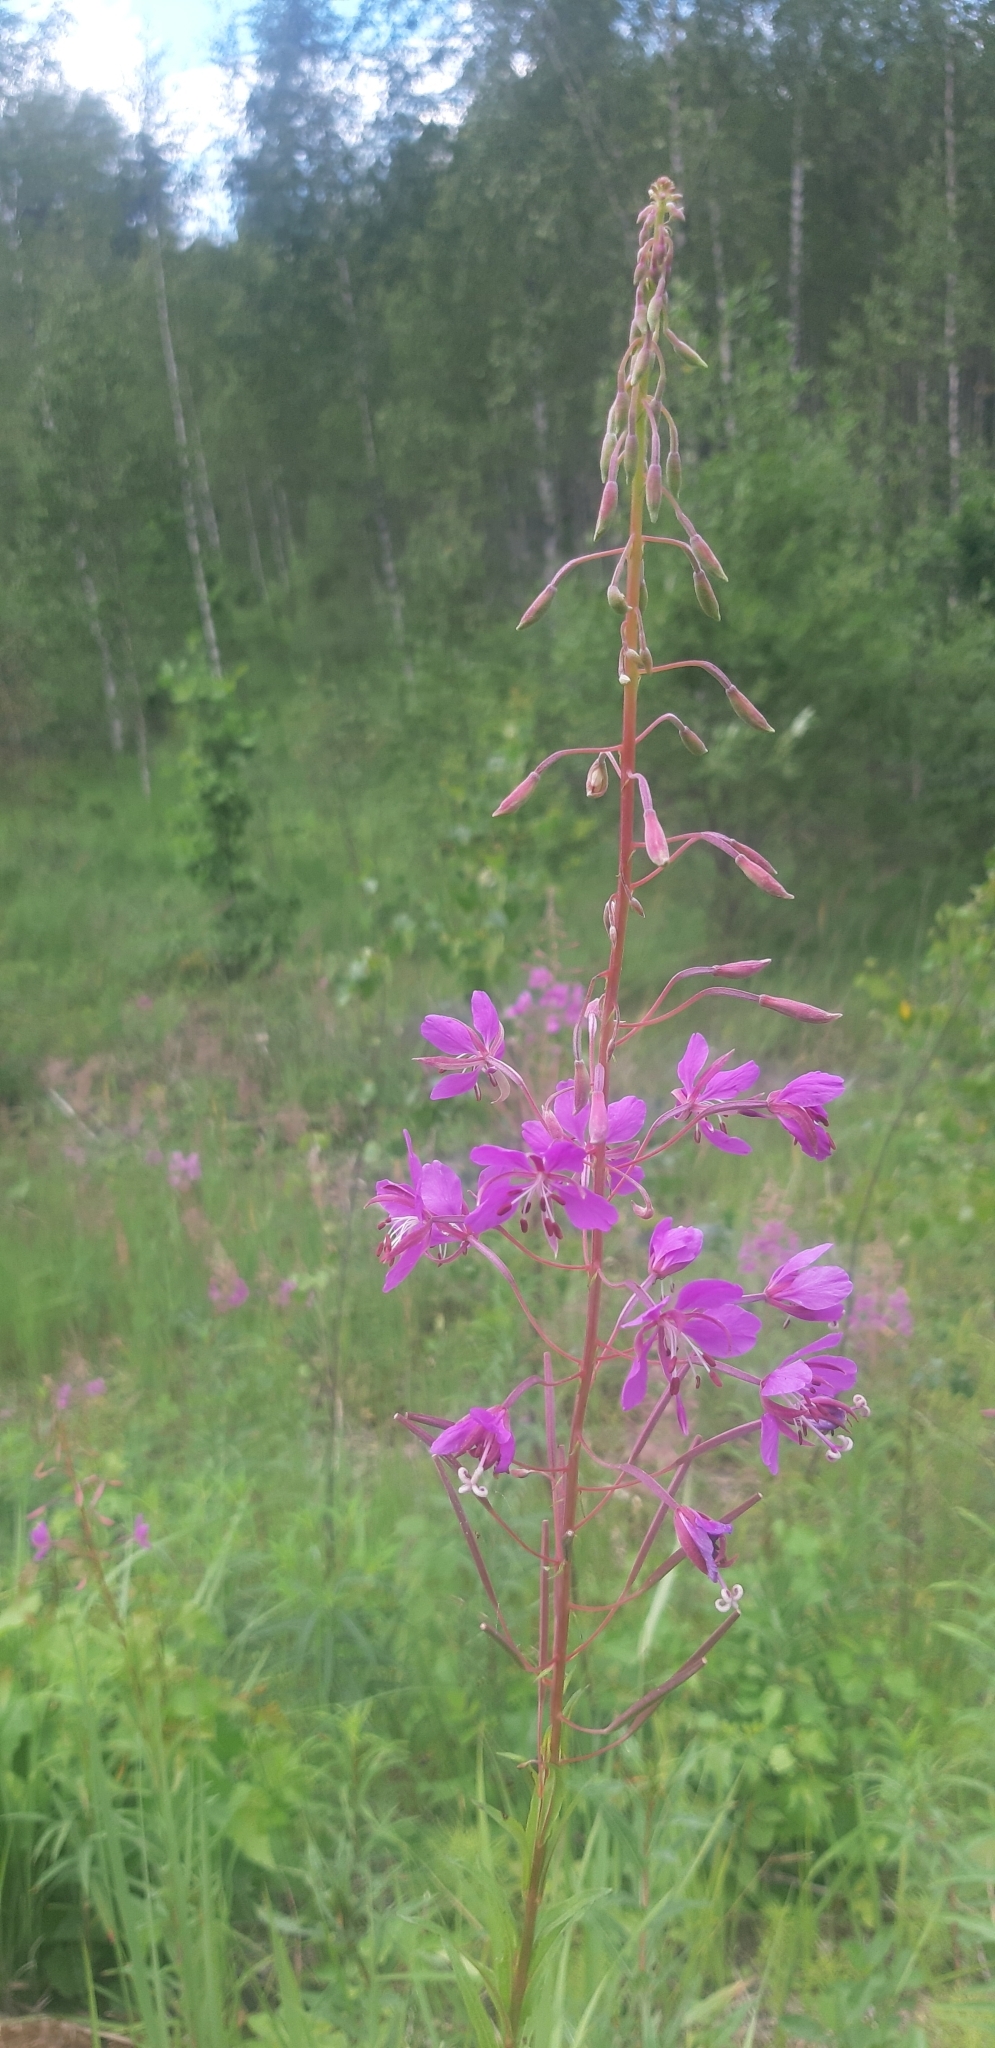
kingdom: Plantae
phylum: Tracheophyta
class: Magnoliopsida
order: Myrtales
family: Onagraceae
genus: Chamaenerion
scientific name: Chamaenerion angustifolium
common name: Fireweed
